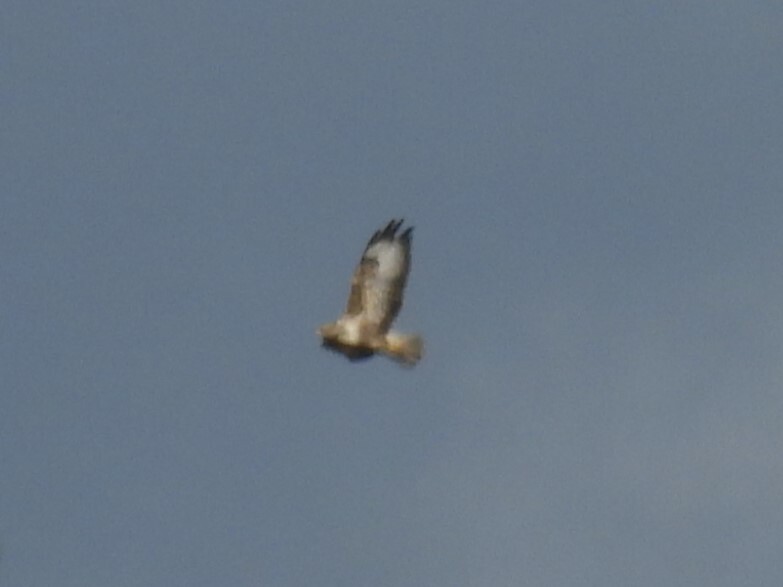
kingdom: Animalia
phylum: Chordata
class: Aves
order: Accipitriformes
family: Accipitridae
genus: Buteo
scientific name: Buteo buteo
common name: Common buzzard
